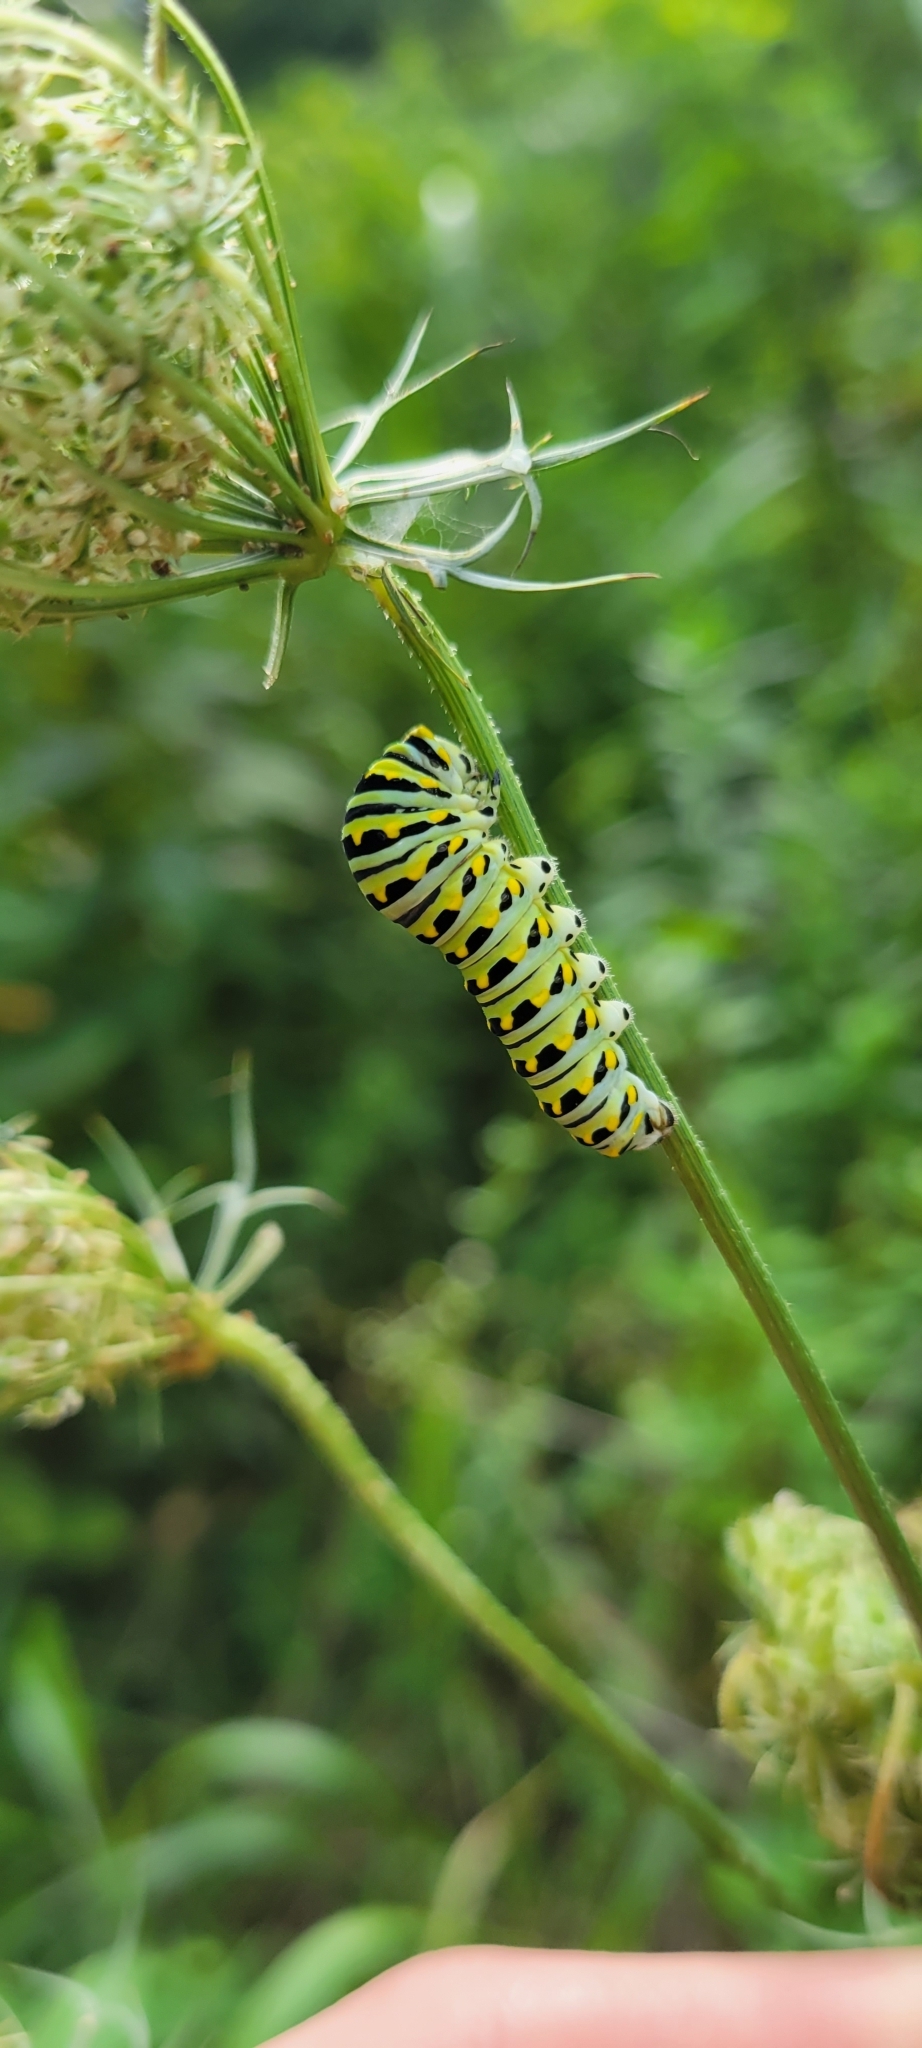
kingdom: Animalia
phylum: Arthropoda
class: Insecta
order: Lepidoptera
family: Papilionidae
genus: Papilio
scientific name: Papilio polyxenes
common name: Black swallowtail
